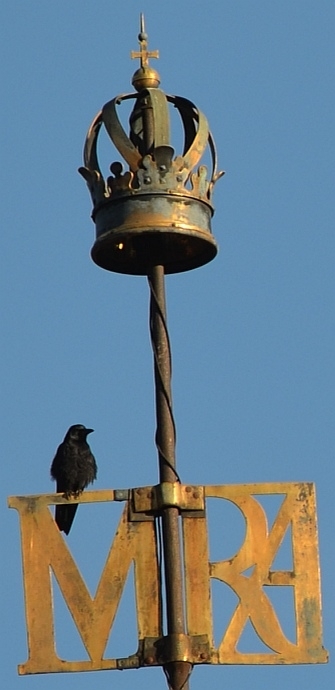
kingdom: Animalia
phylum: Chordata
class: Aves
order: Passeriformes
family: Corvidae
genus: Corvus
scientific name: Corvus corone
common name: Carrion crow
